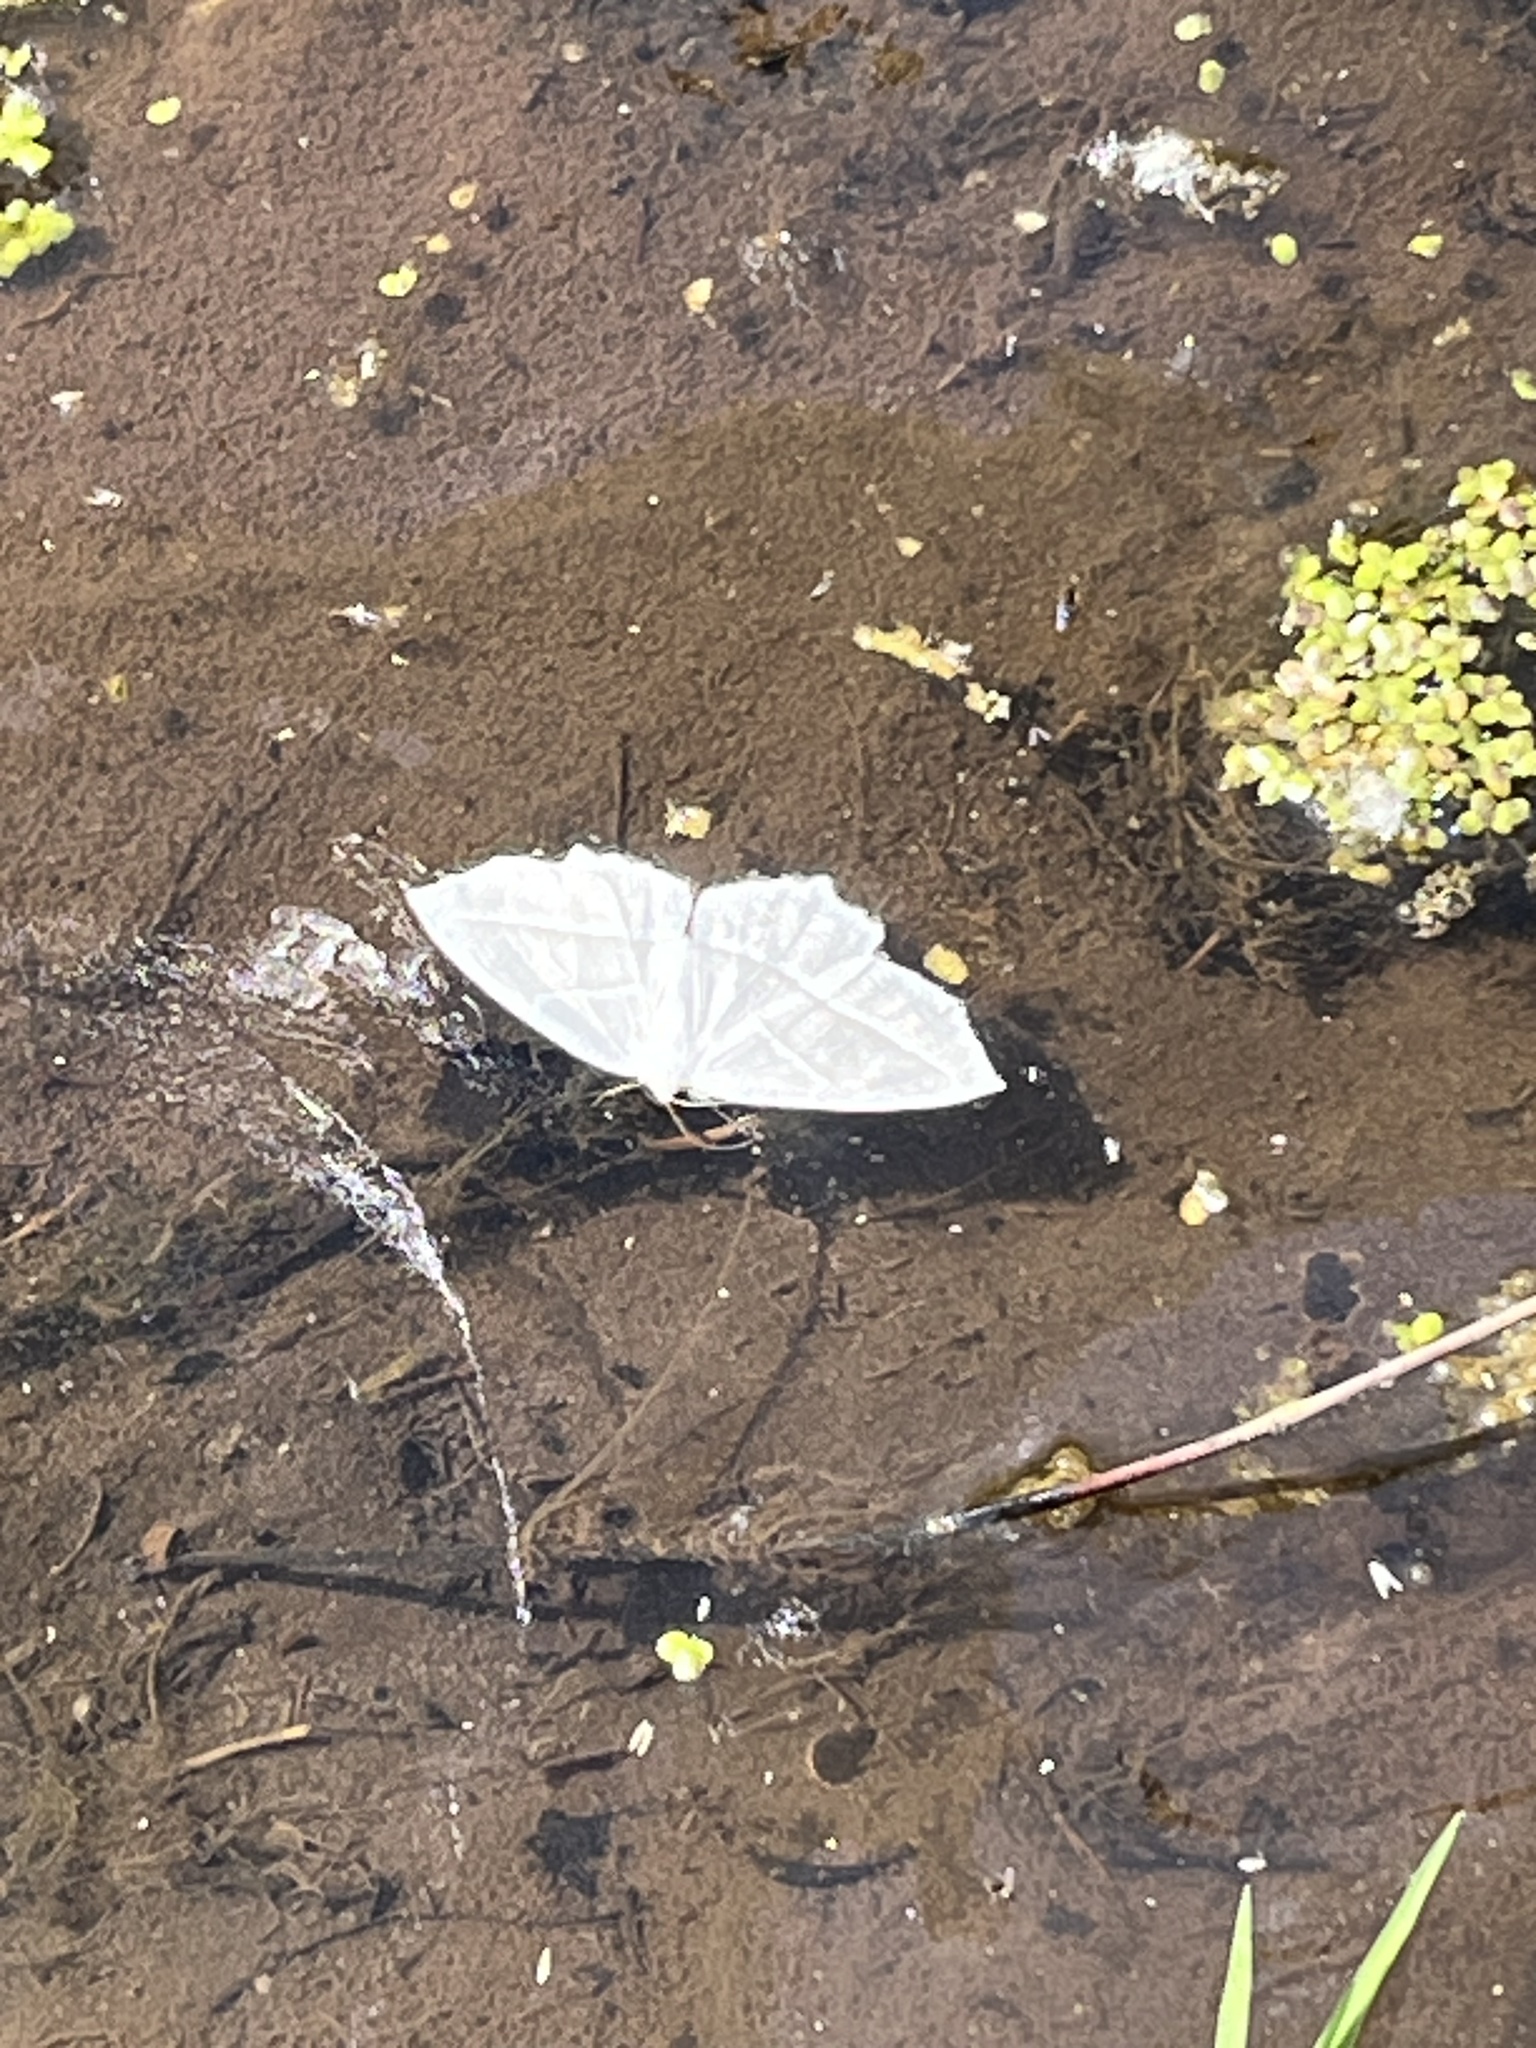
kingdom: Animalia
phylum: Arthropoda
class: Insecta
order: Lepidoptera
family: Geometridae
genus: Campaea
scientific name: Campaea perlata
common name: Fringed looper
